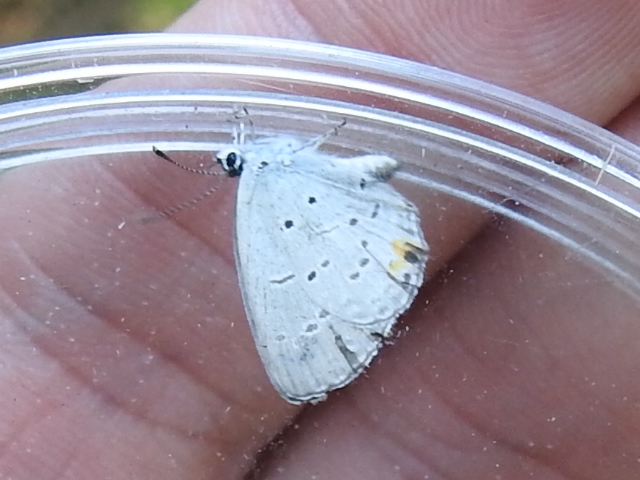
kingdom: Animalia
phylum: Arthropoda
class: Insecta
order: Lepidoptera
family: Lycaenidae
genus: Elkalyce
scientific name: Elkalyce comyntas
